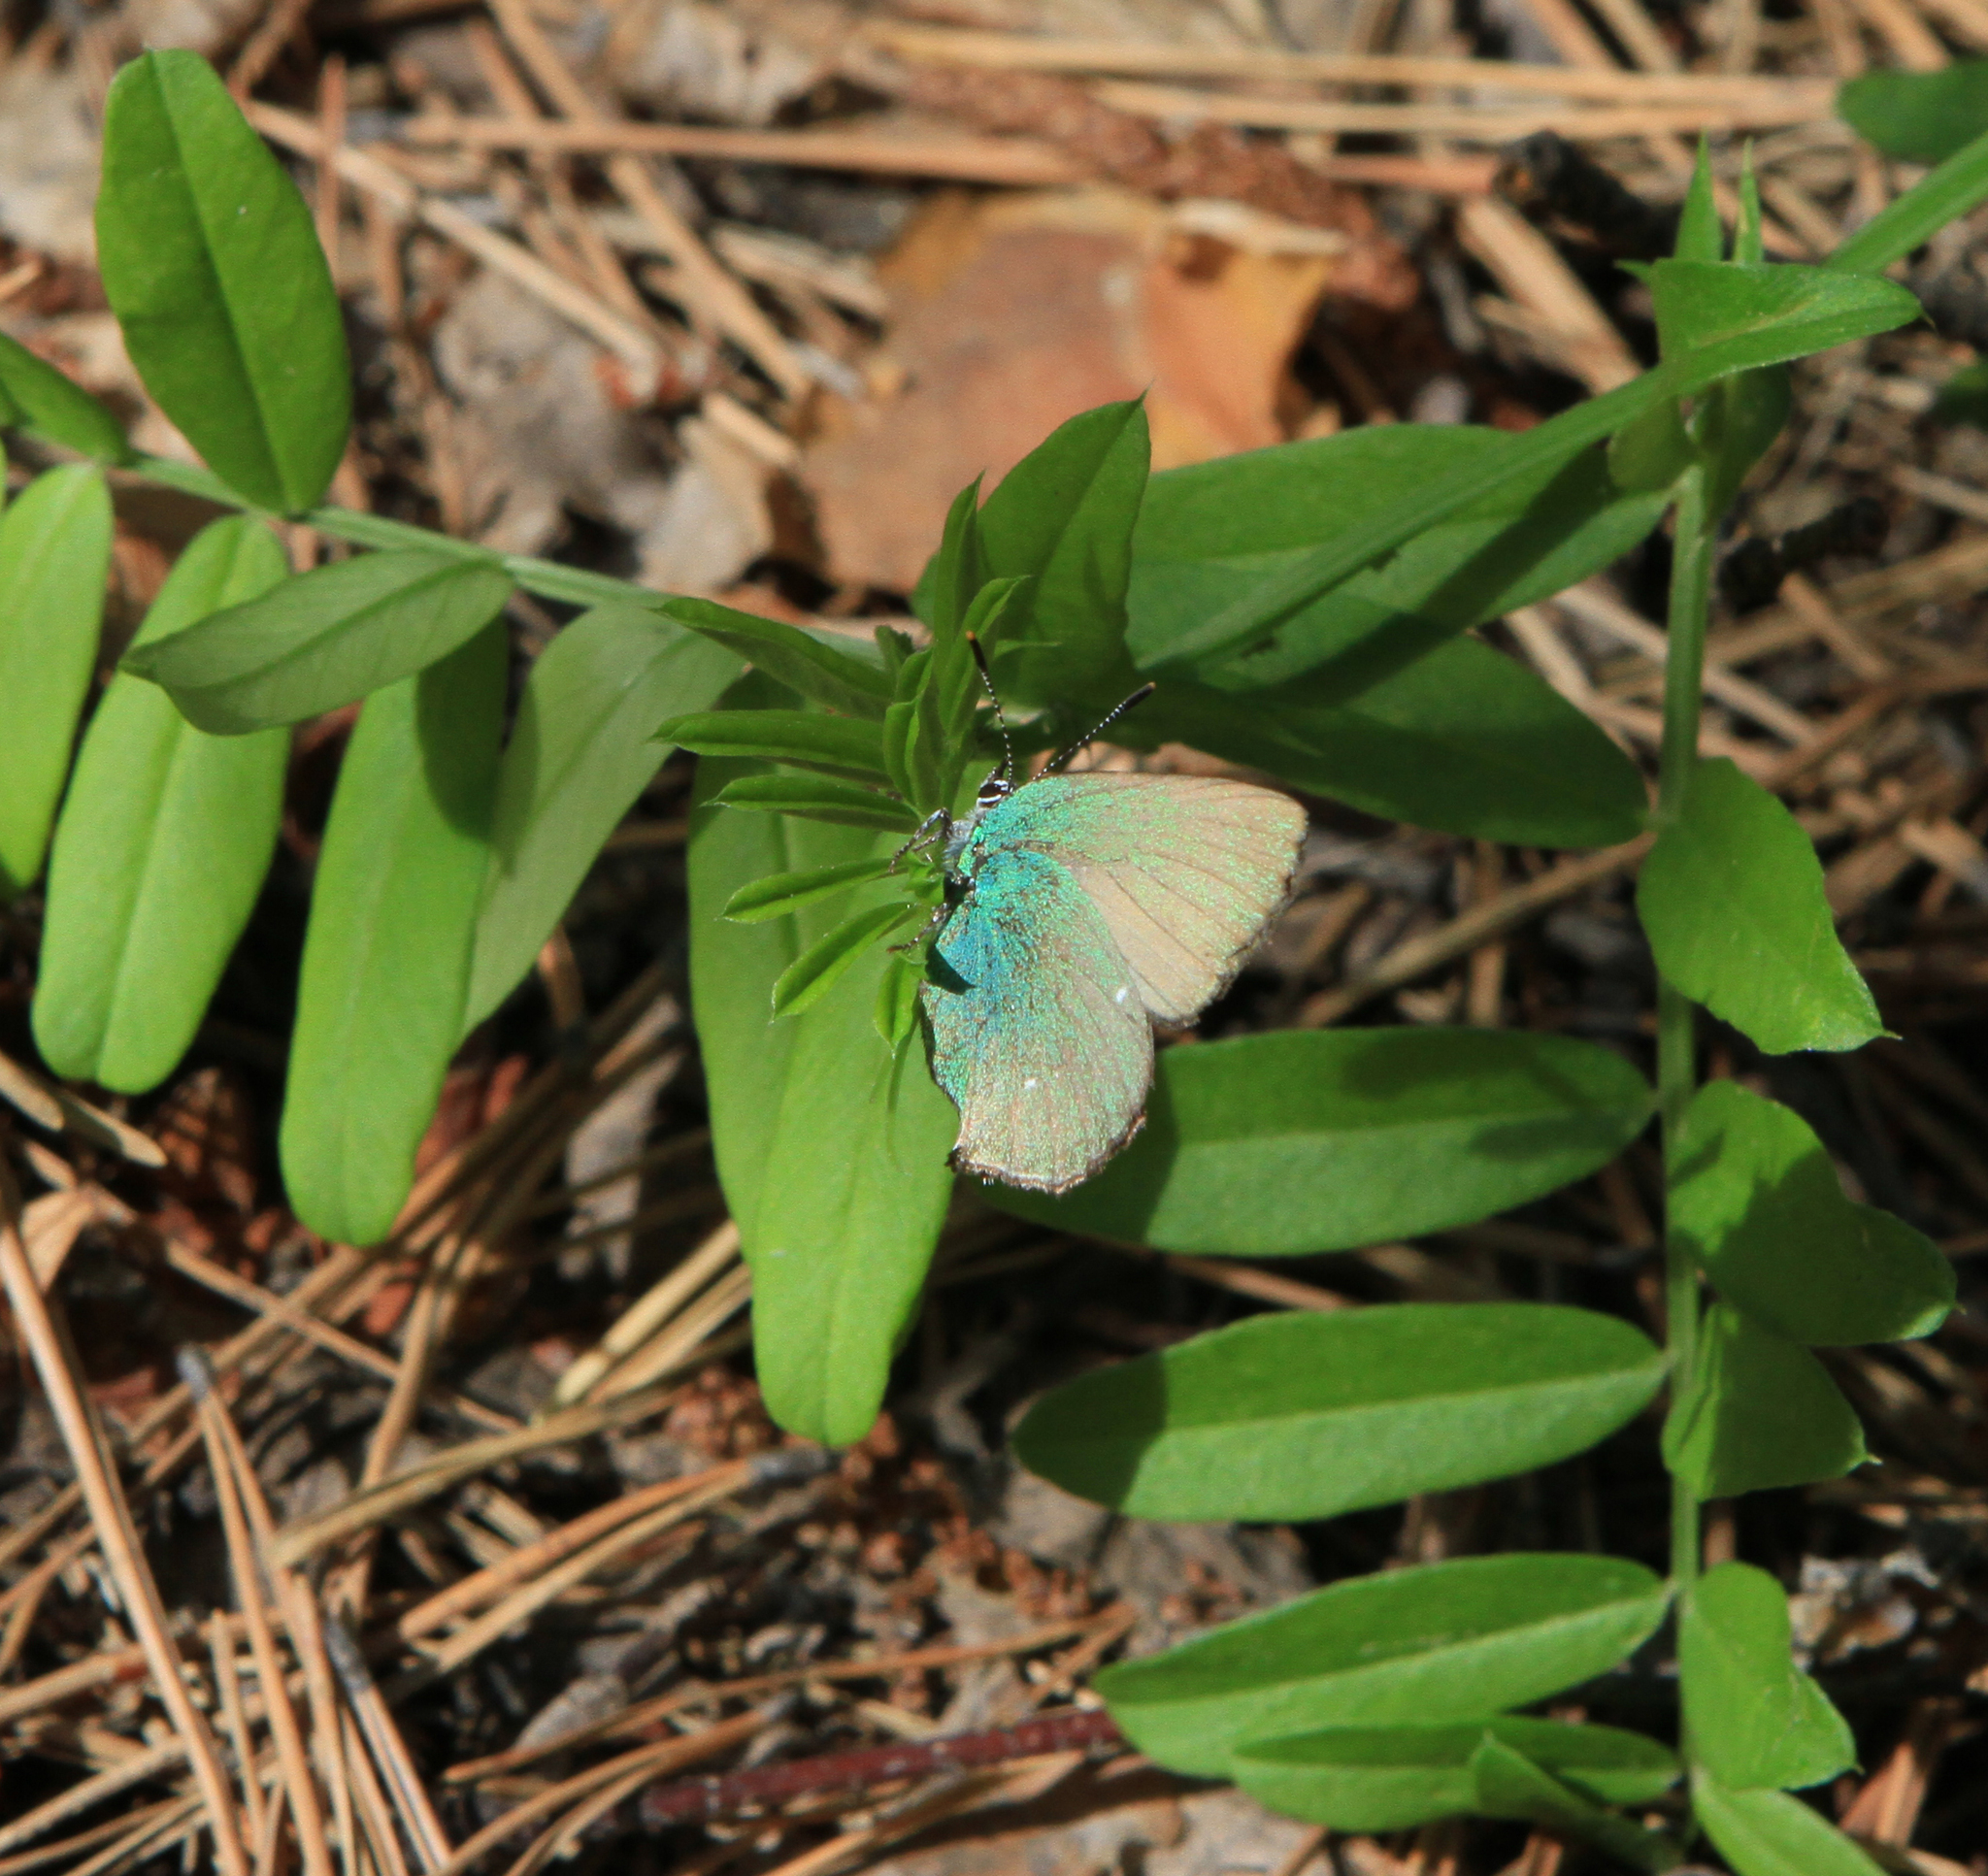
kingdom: Animalia
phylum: Arthropoda
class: Insecta
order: Lepidoptera
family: Lycaenidae
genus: Callophrys
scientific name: Callophrys rubi
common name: Green hairstreak
